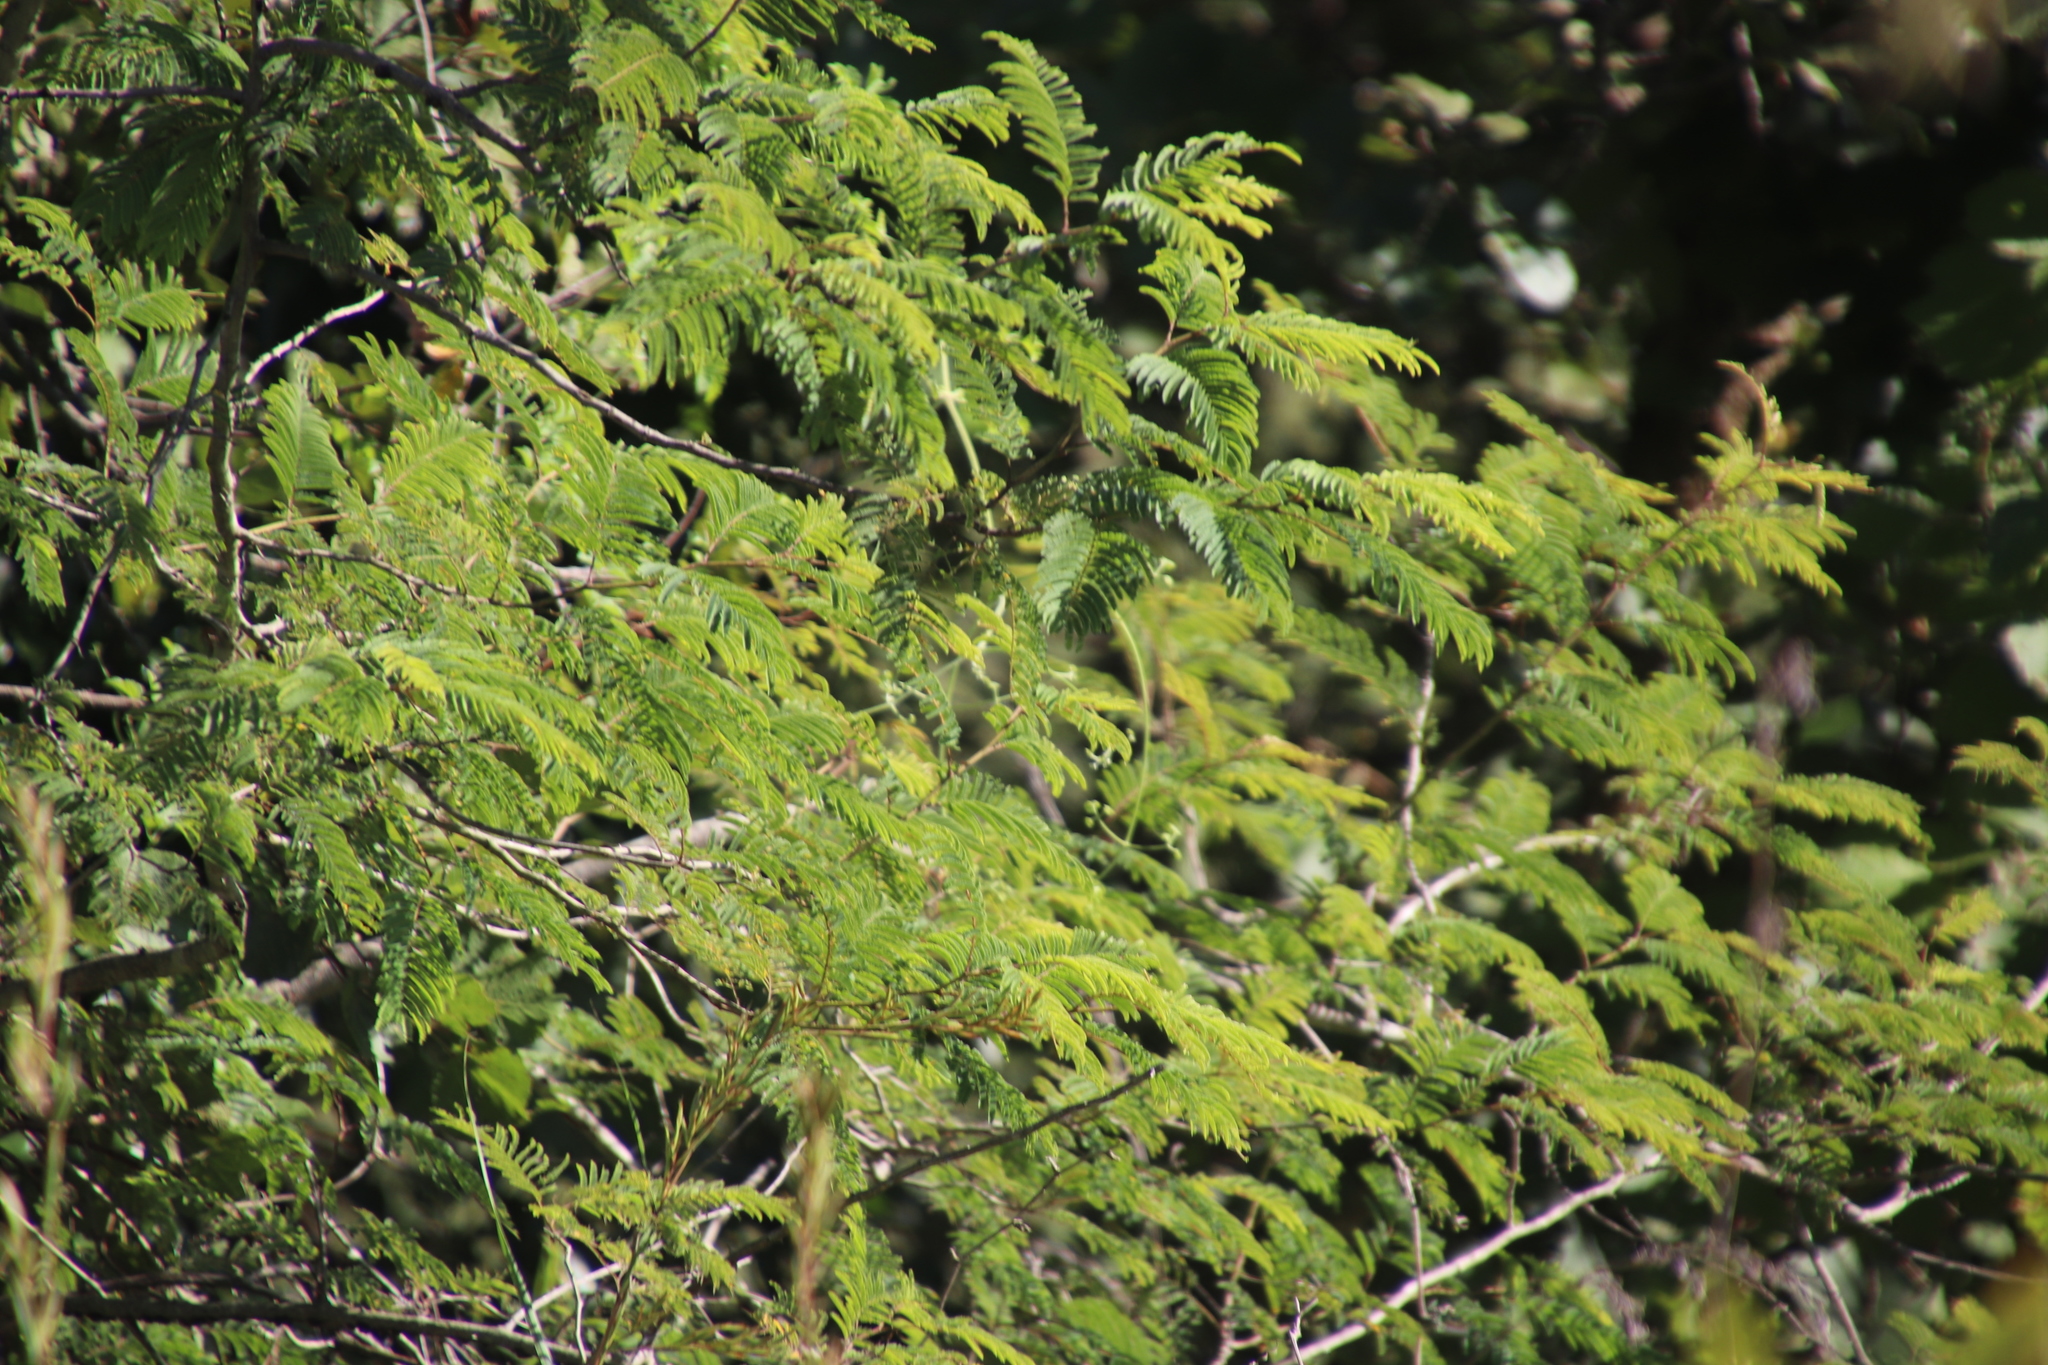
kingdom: Plantae
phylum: Tracheophyta
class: Magnoliopsida
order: Fabales
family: Fabaceae
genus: Senegalia
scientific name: Senegalia ataxacantha
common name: Flame acacia
